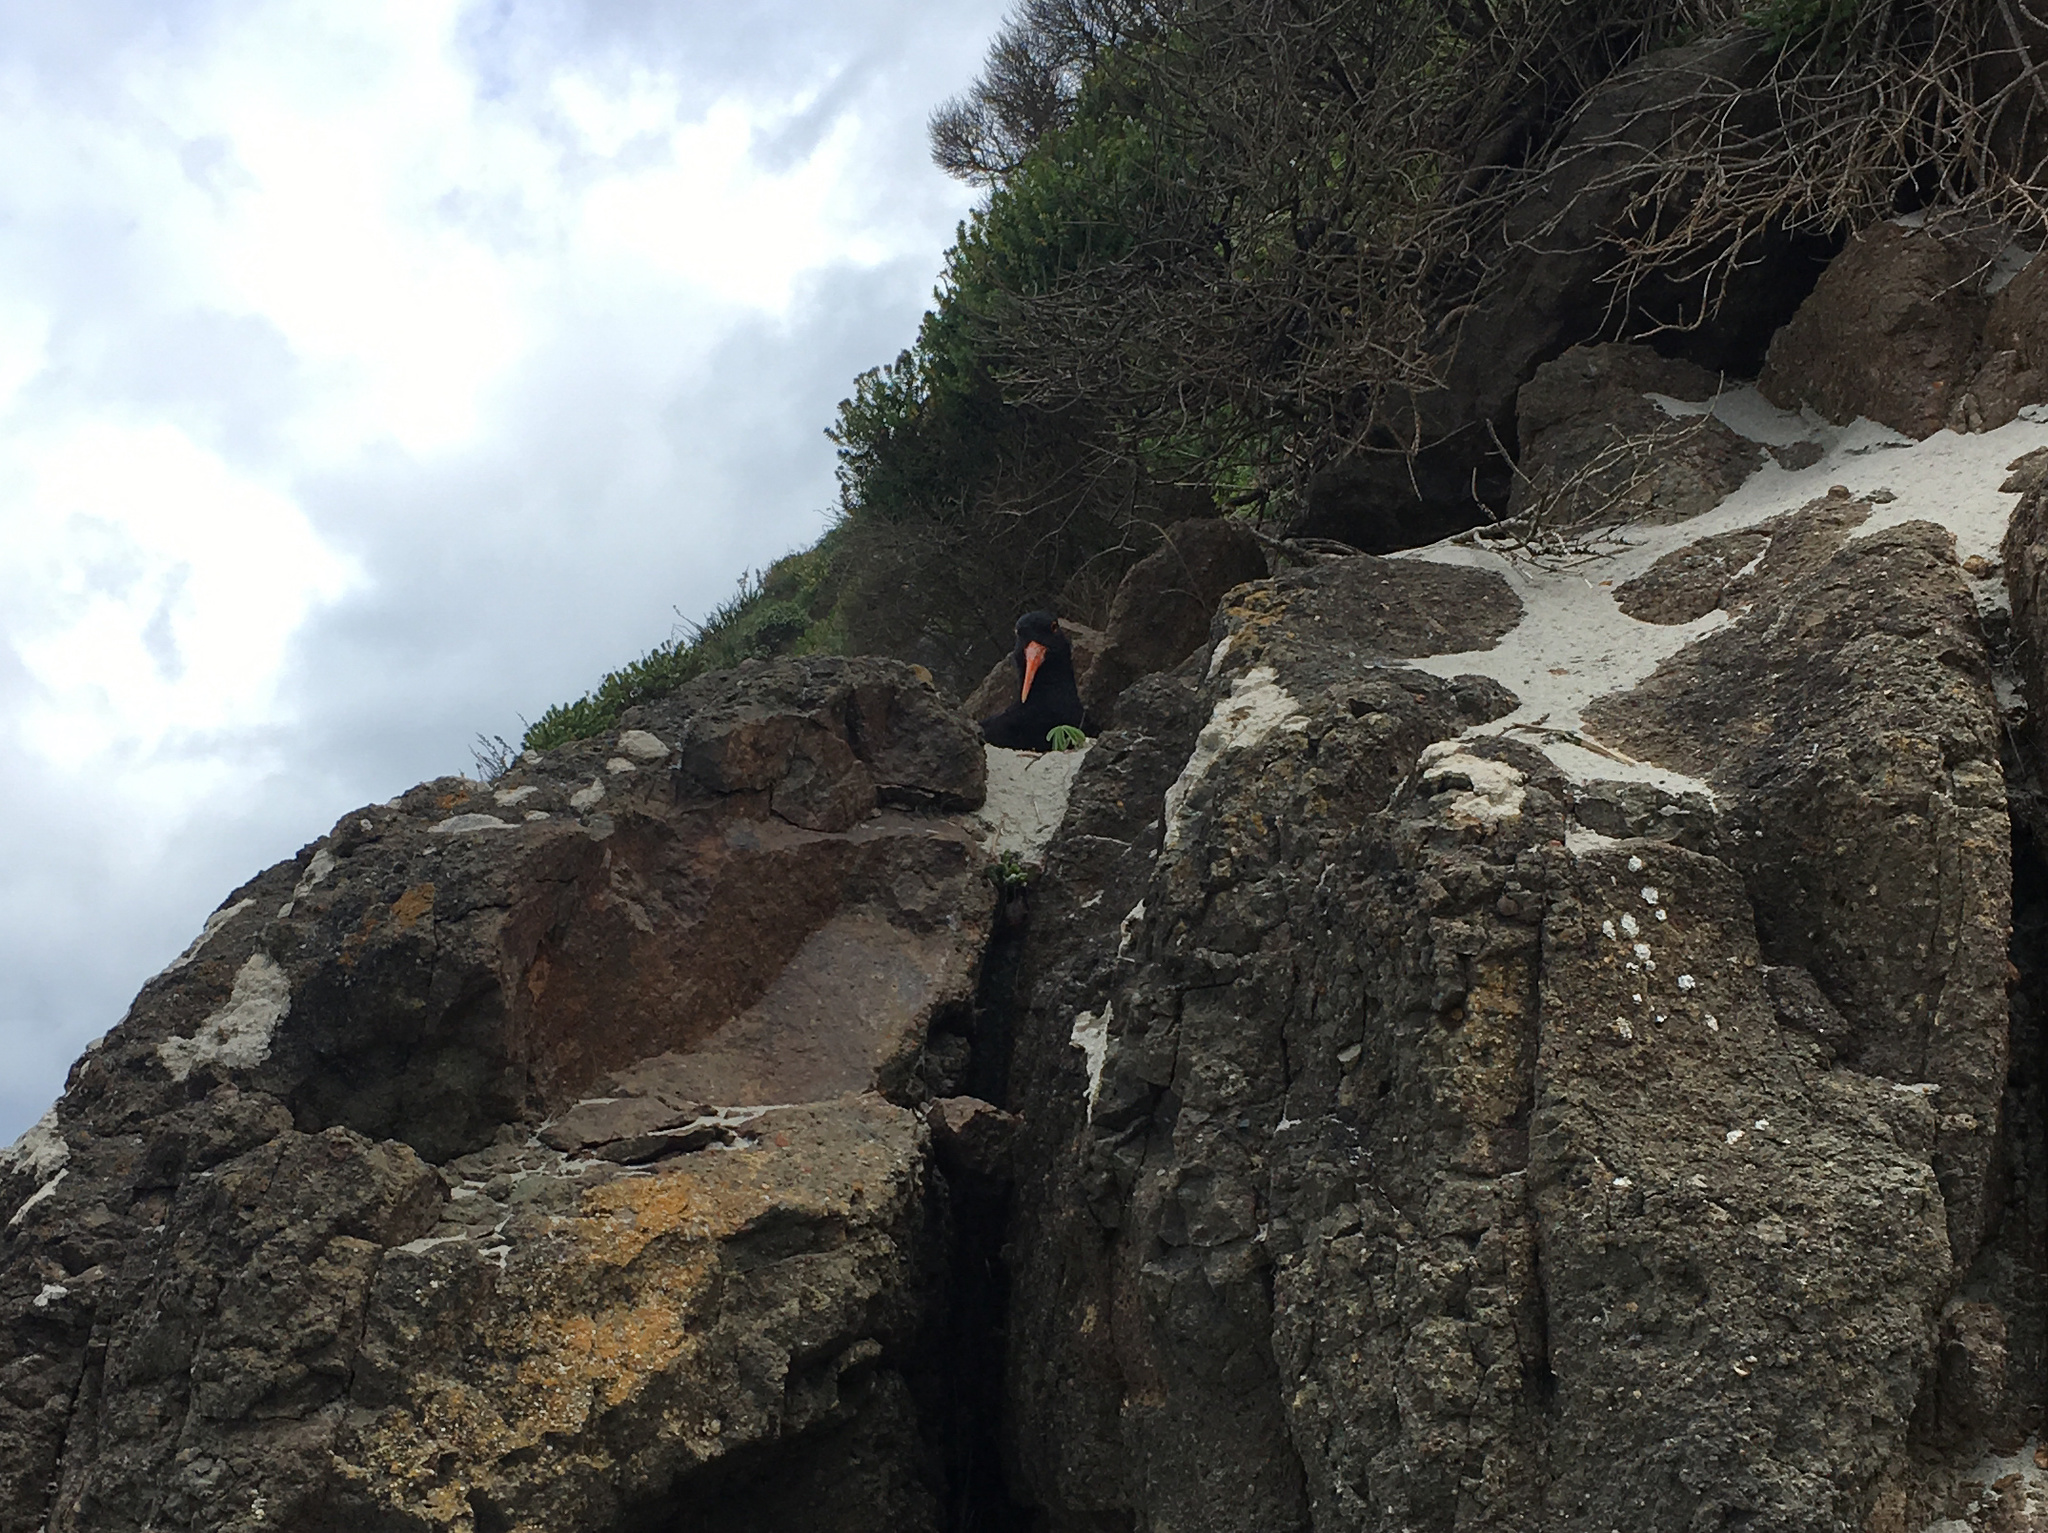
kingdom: Animalia
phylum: Chordata
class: Aves
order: Charadriiformes
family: Haematopodidae
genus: Haematopus
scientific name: Haematopus unicolor
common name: Variable oystercatcher
